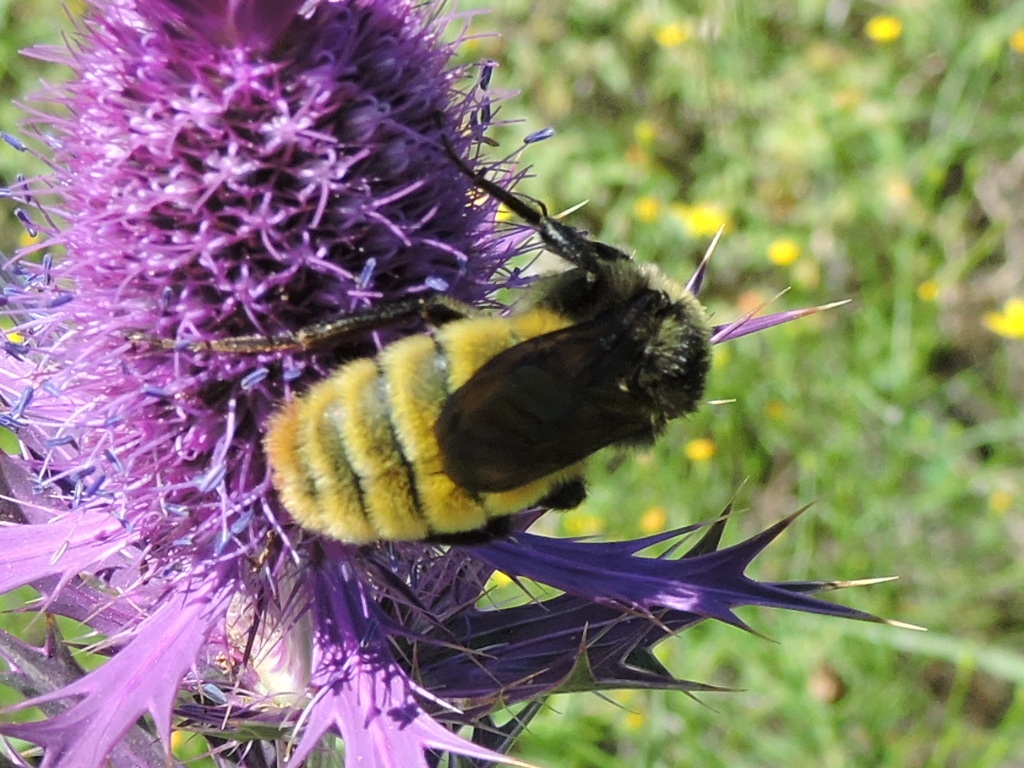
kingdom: Animalia
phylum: Arthropoda
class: Insecta
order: Hymenoptera
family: Apidae
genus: Bombus
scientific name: Bombus pensylvanicus
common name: Bumble bee
